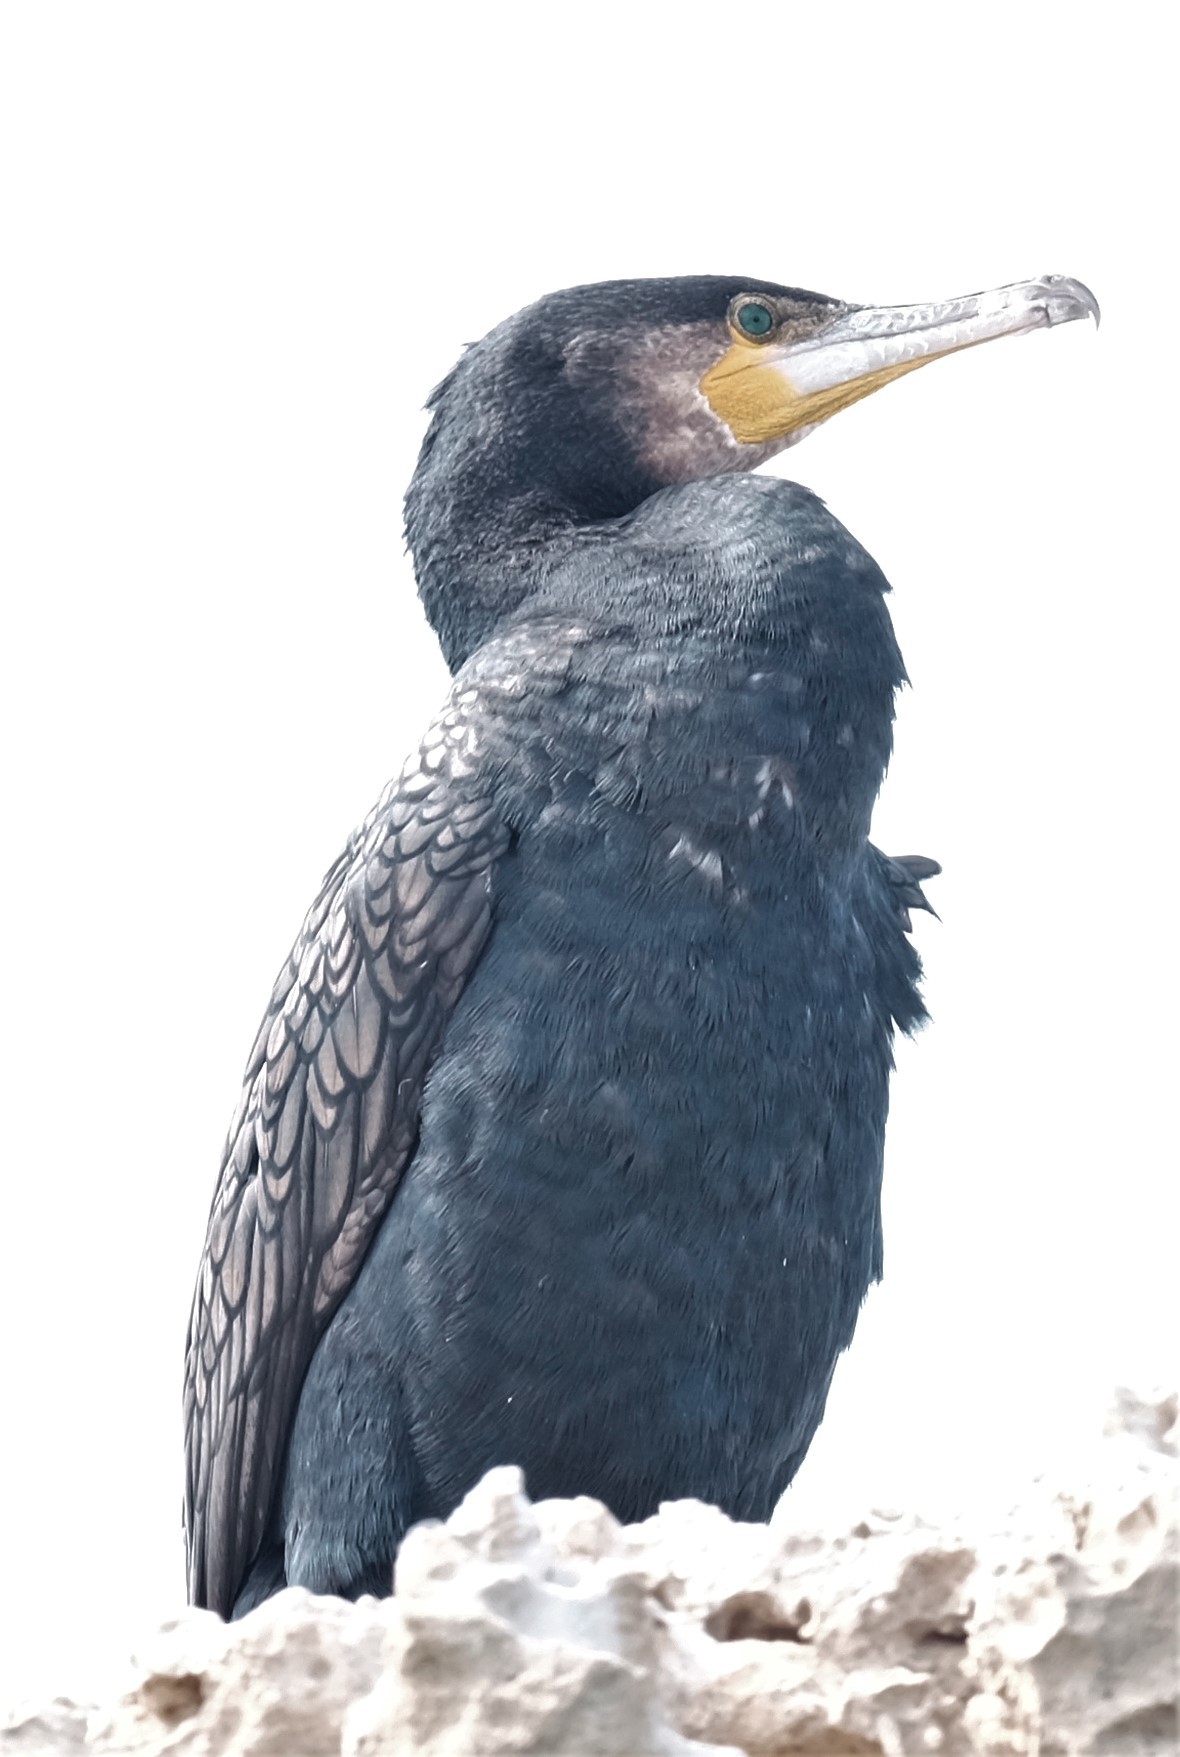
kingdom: Animalia
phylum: Chordata
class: Aves
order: Suliformes
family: Phalacrocoracidae
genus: Phalacrocorax
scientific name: Phalacrocorax carbo
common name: Great cormorant
